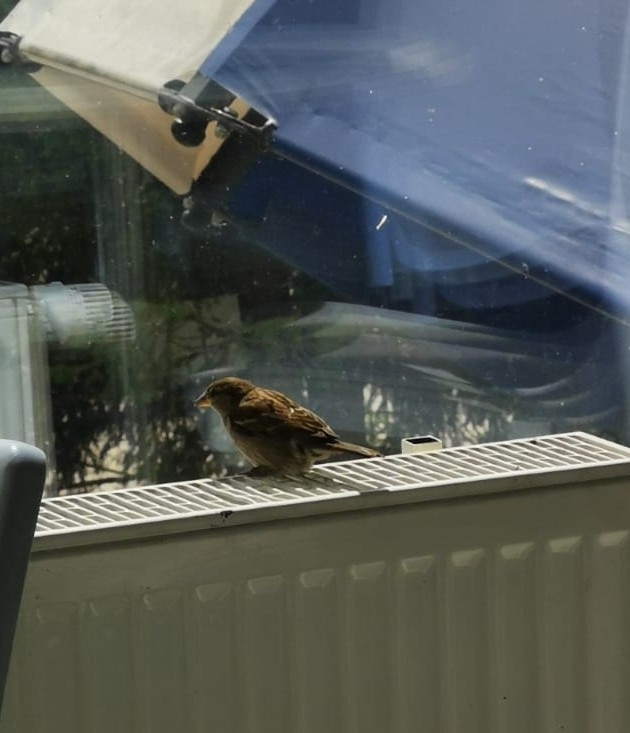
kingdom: Animalia
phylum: Chordata
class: Aves
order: Passeriformes
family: Passeridae
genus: Passer
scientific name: Passer domesticus
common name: House sparrow
